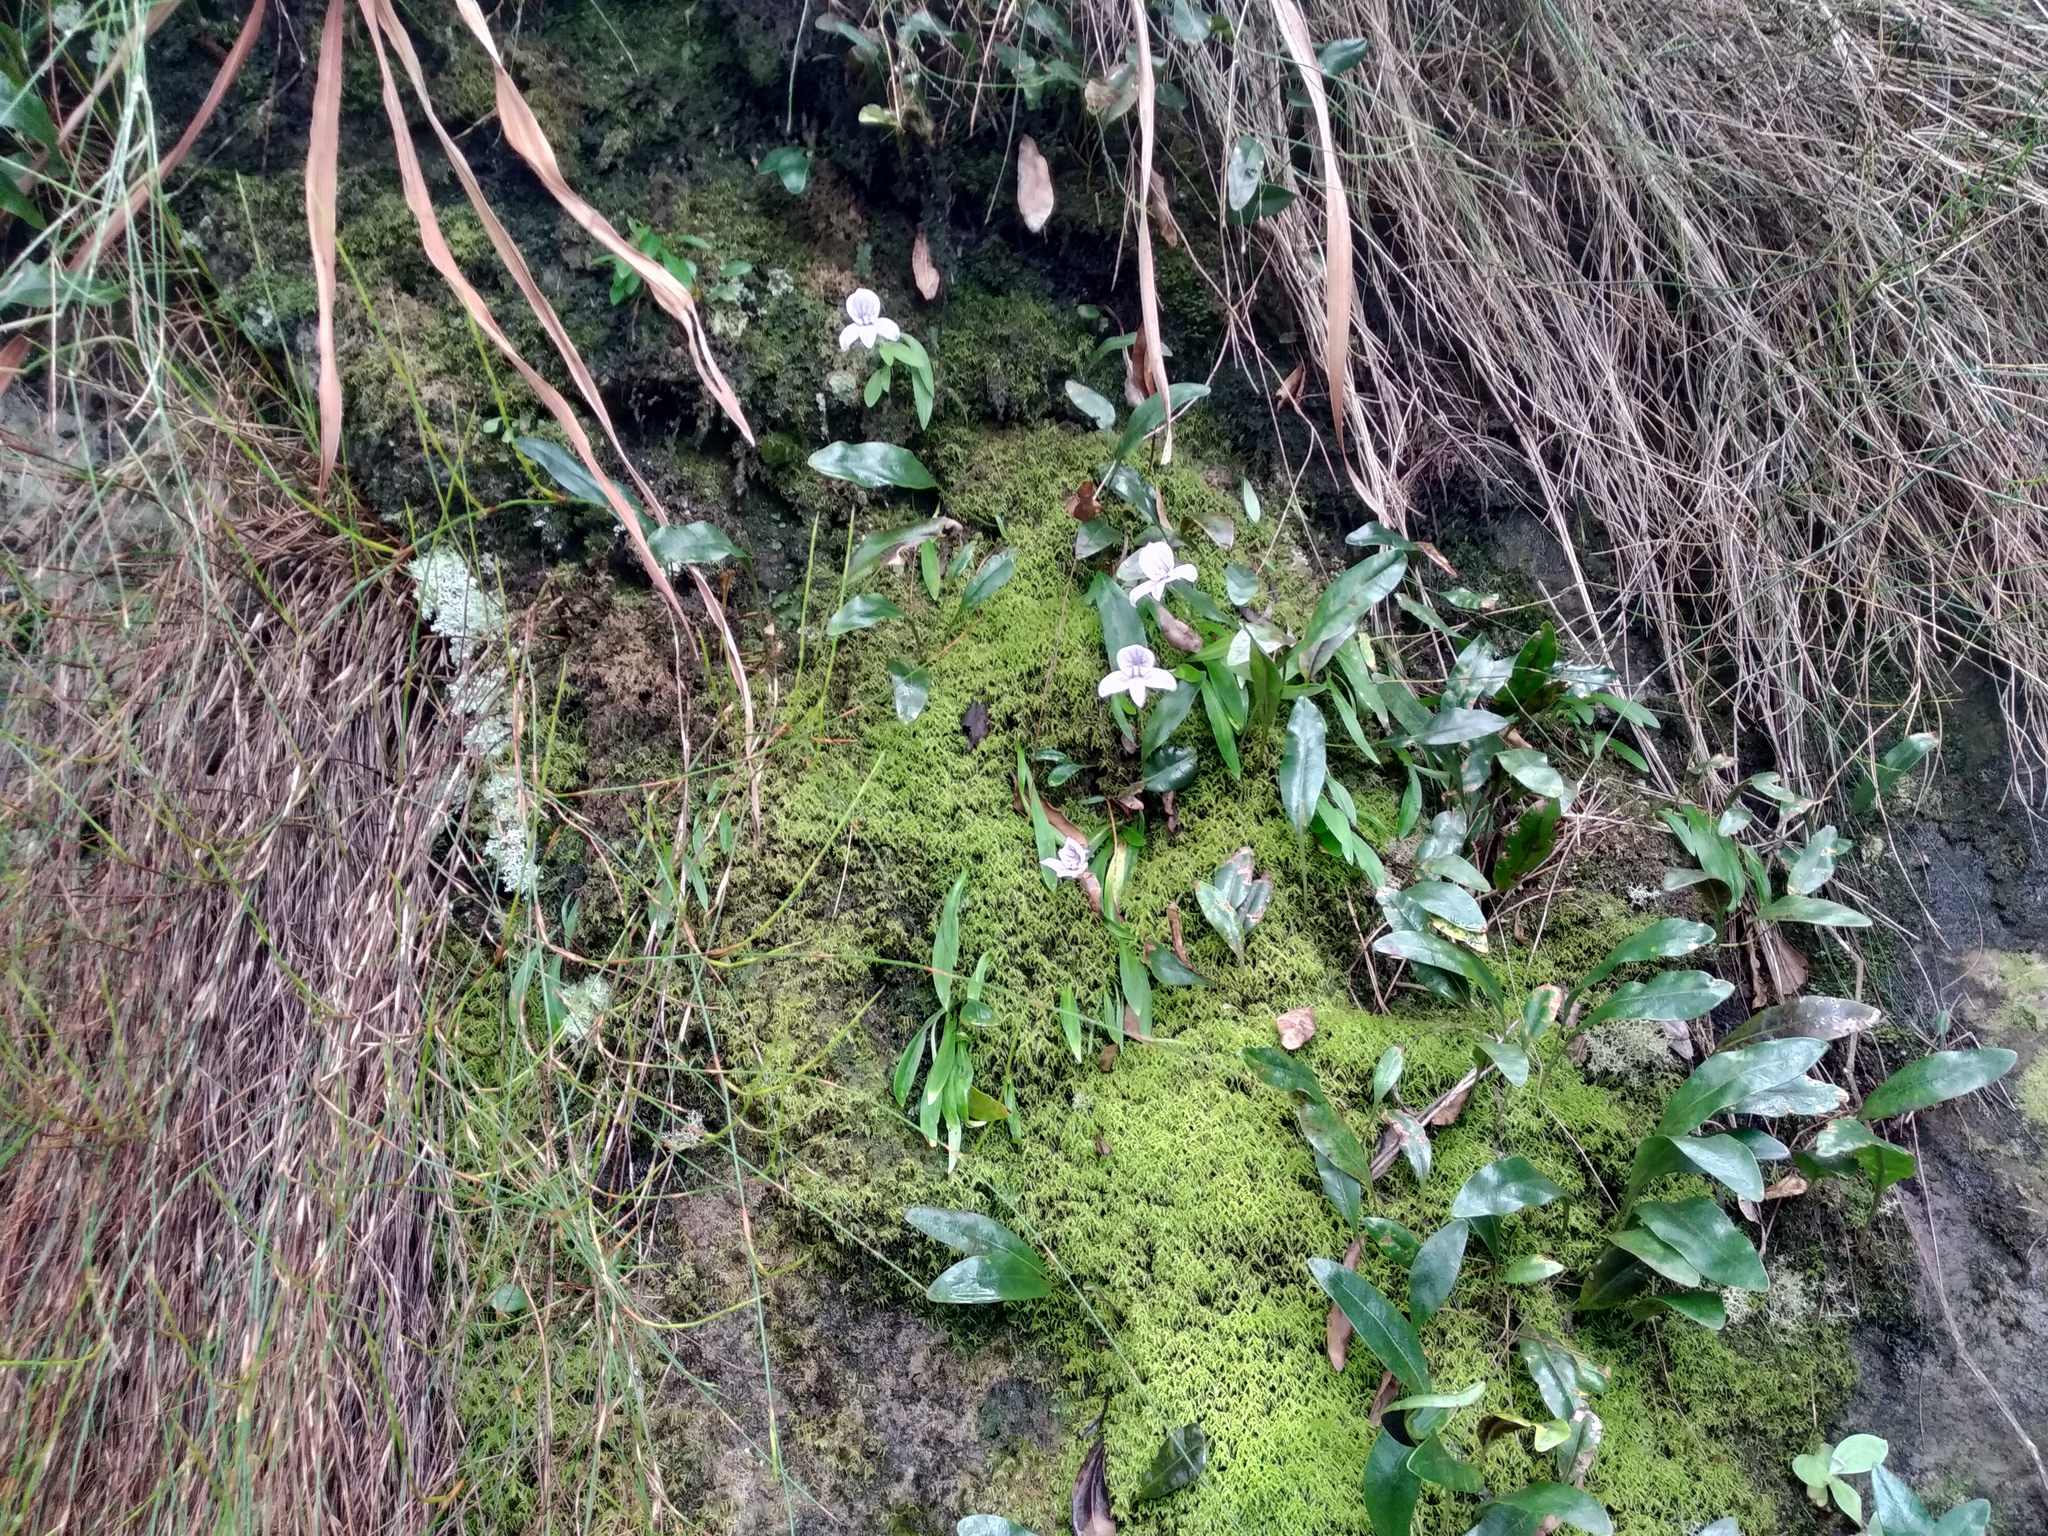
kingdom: Plantae
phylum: Tracheophyta
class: Liliopsida
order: Asparagales
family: Orchidaceae
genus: Disa
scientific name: Disa longicornu
